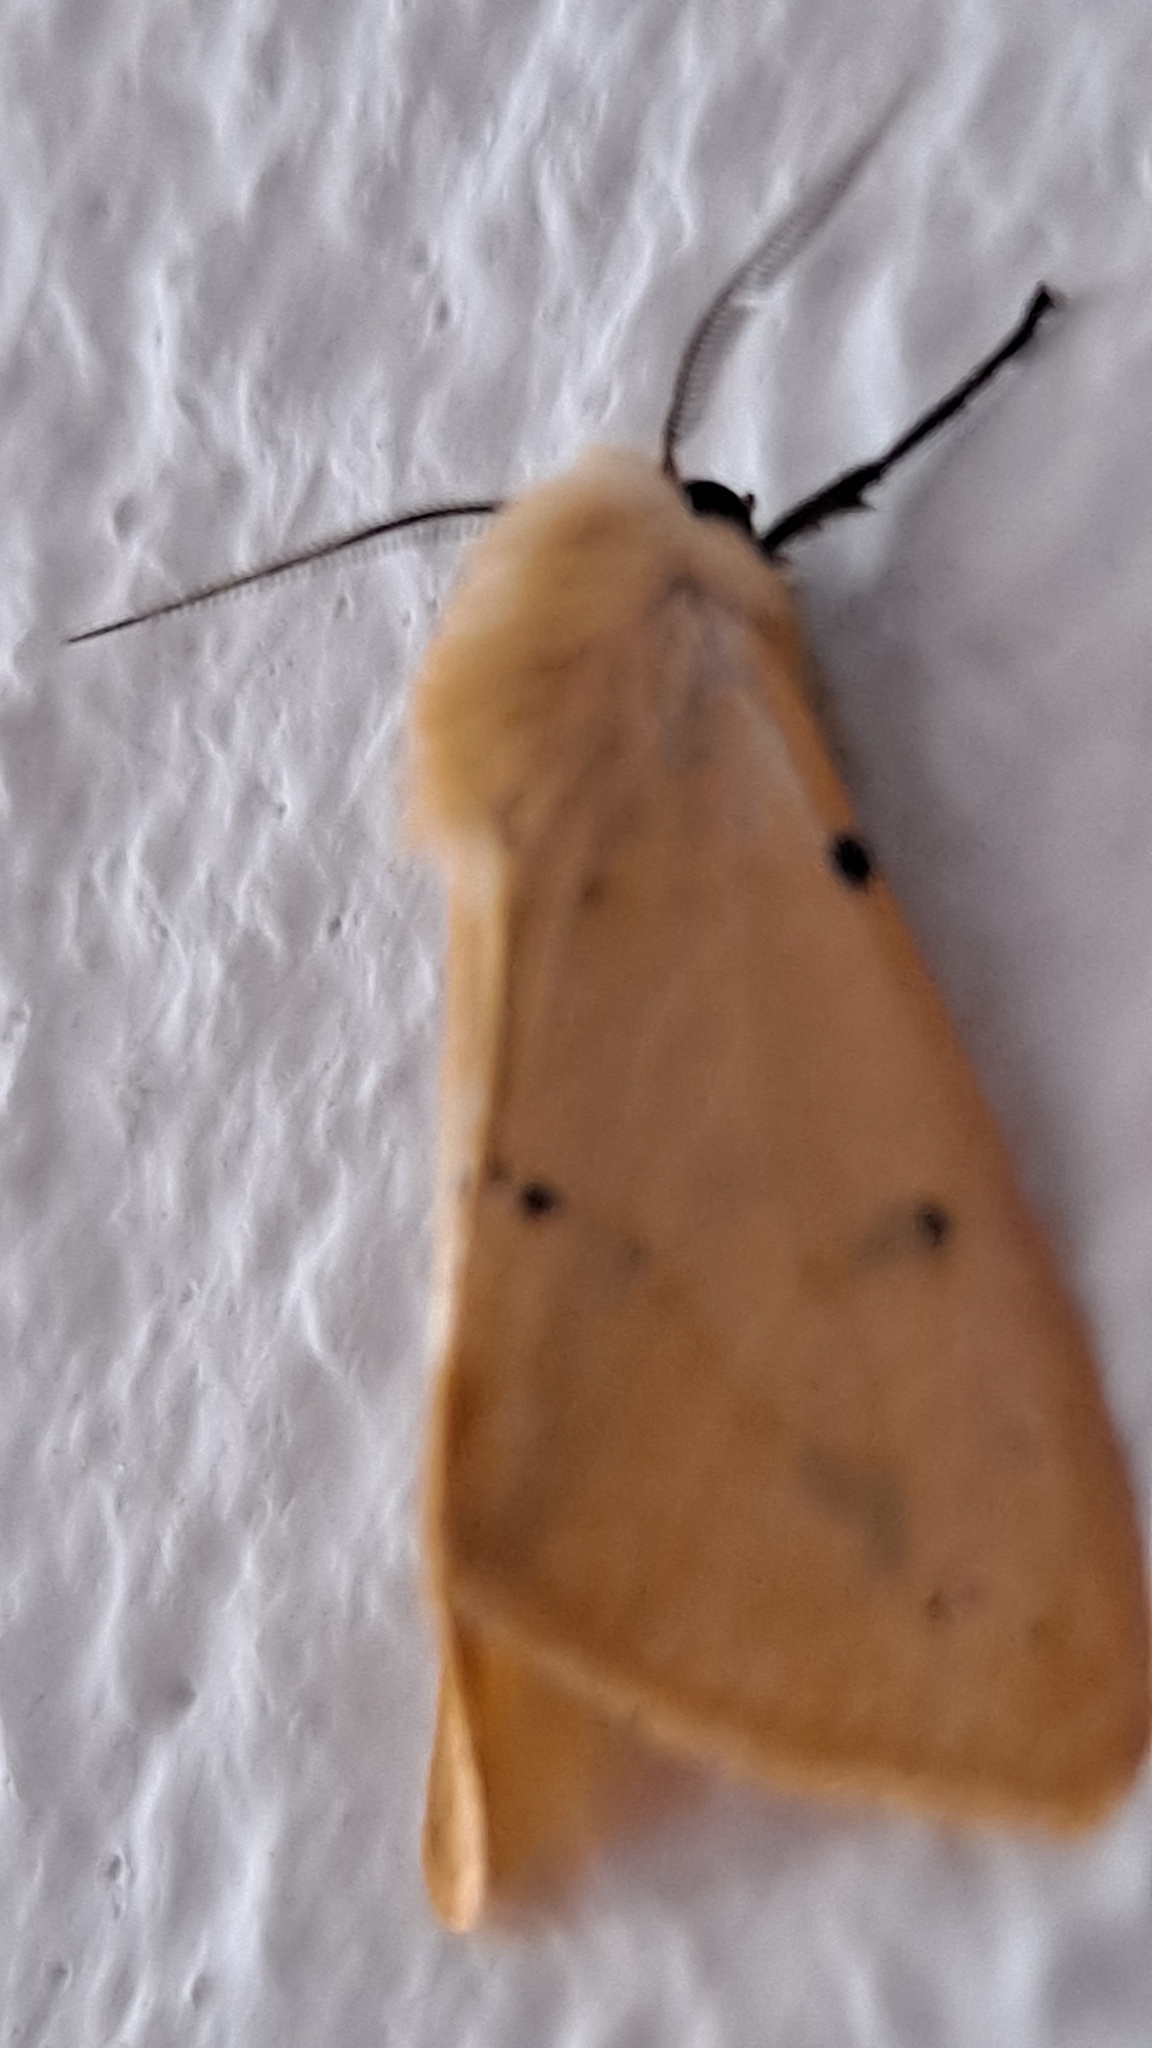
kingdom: Animalia
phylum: Arthropoda
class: Insecta
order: Lepidoptera
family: Erebidae
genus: Spilarctia
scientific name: Spilarctia lutea
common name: Buff ermine
